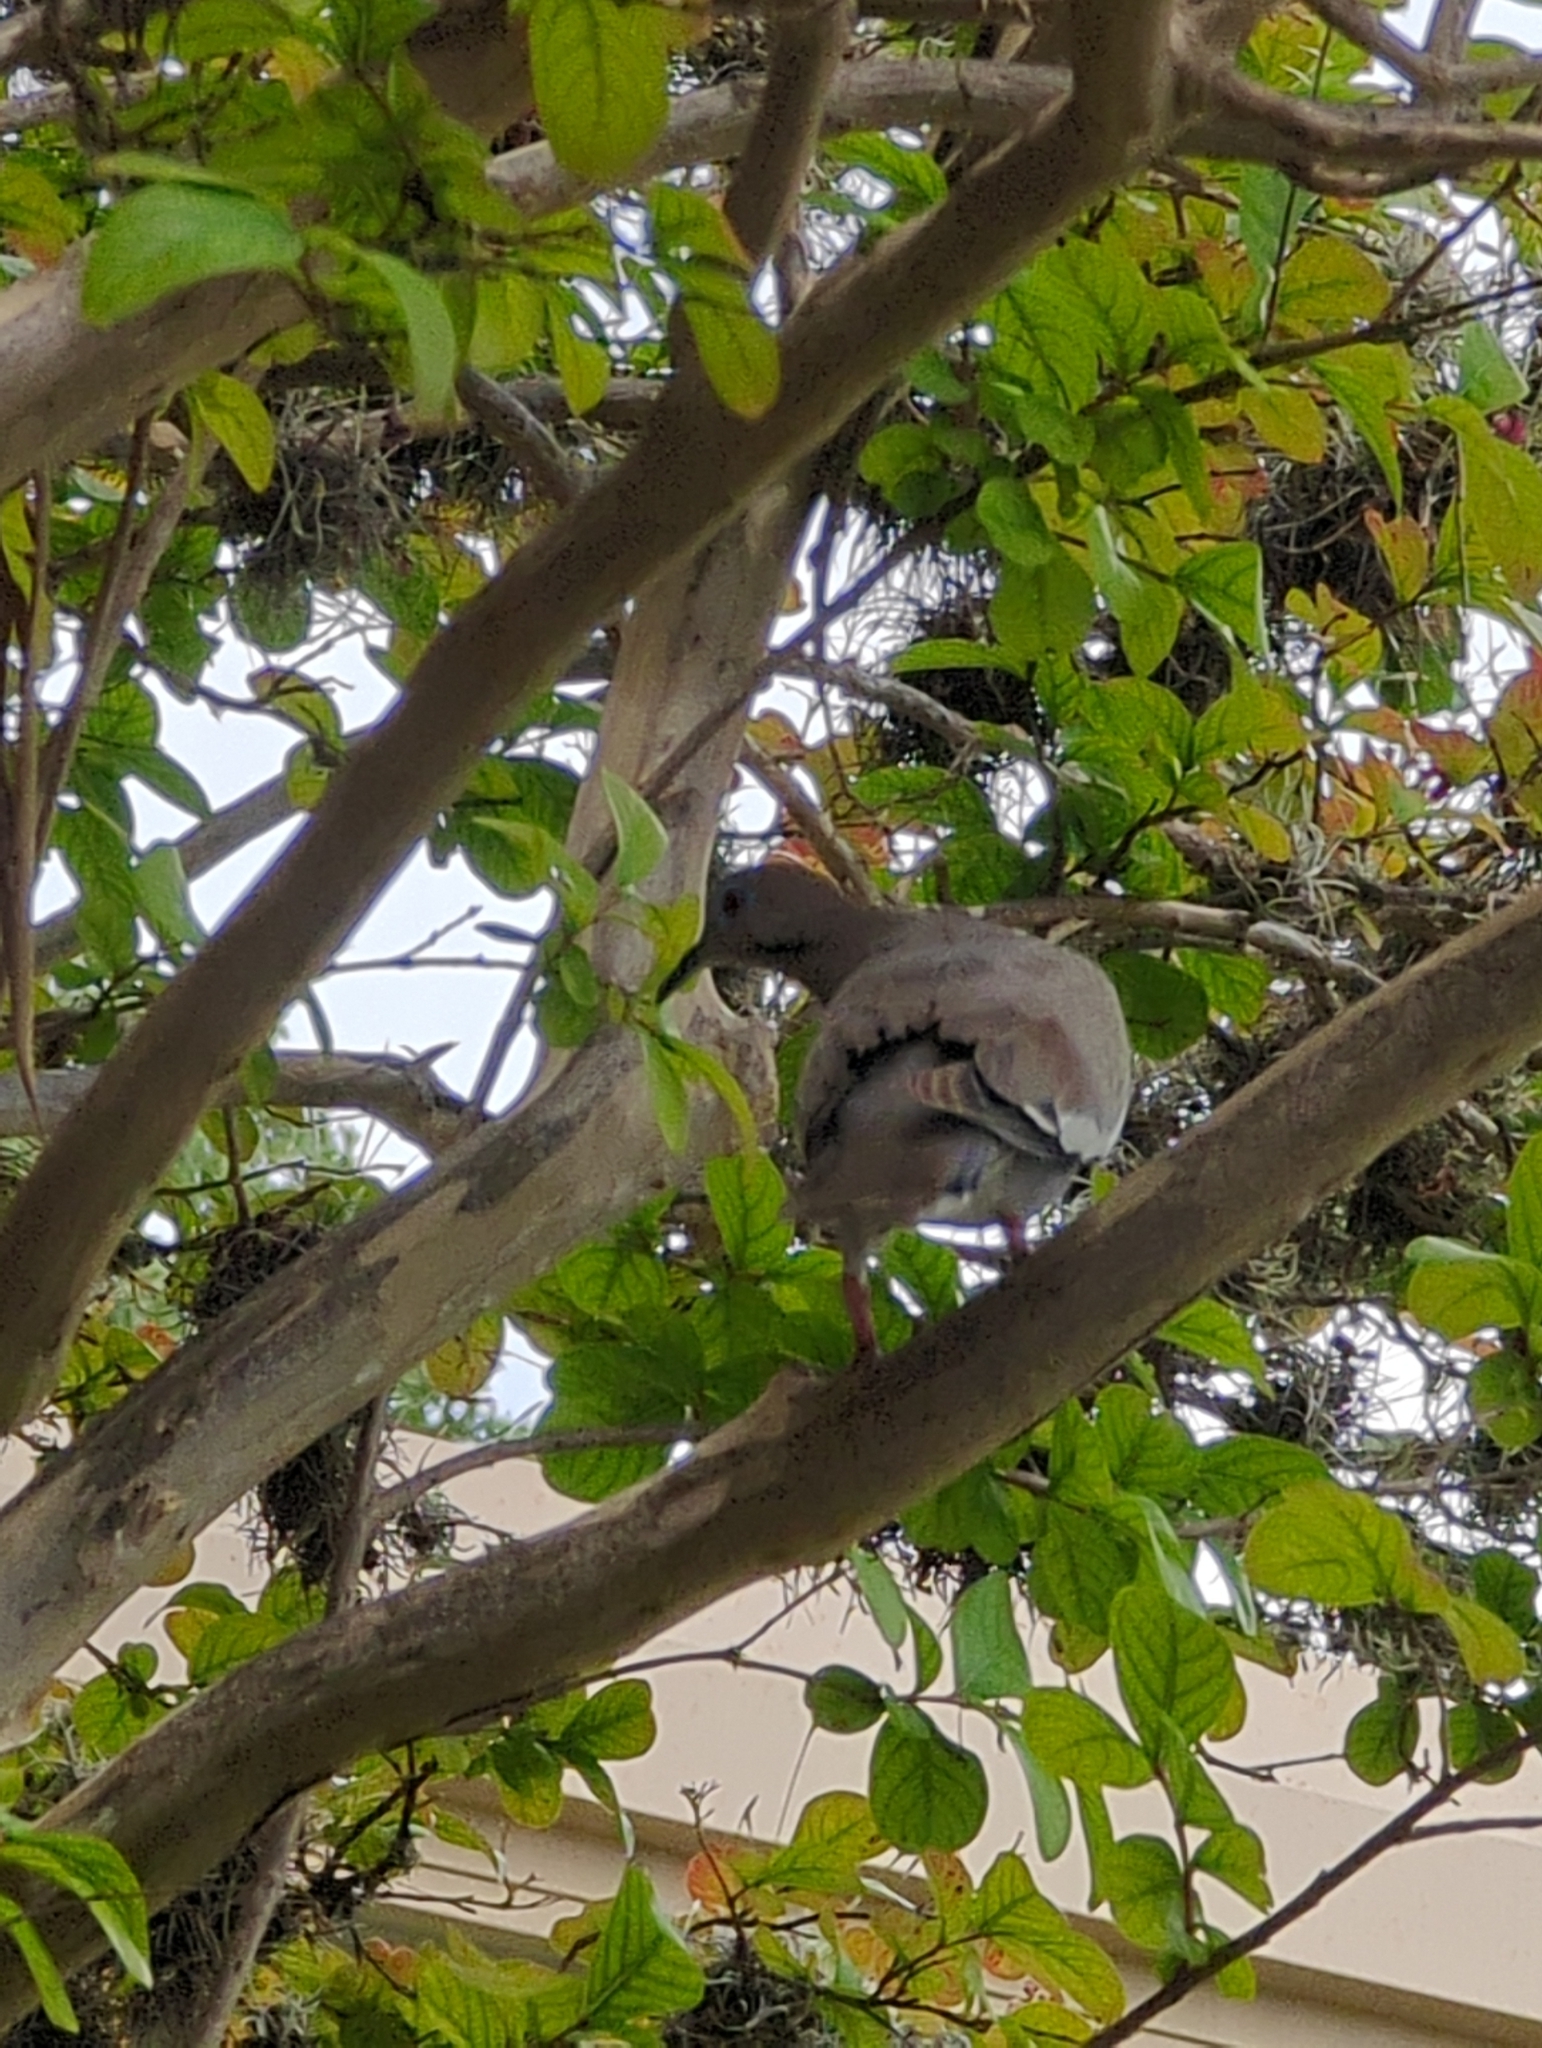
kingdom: Animalia
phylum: Chordata
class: Aves
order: Columbiformes
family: Columbidae
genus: Zenaida
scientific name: Zenaida asiatica
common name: White-winged dove
